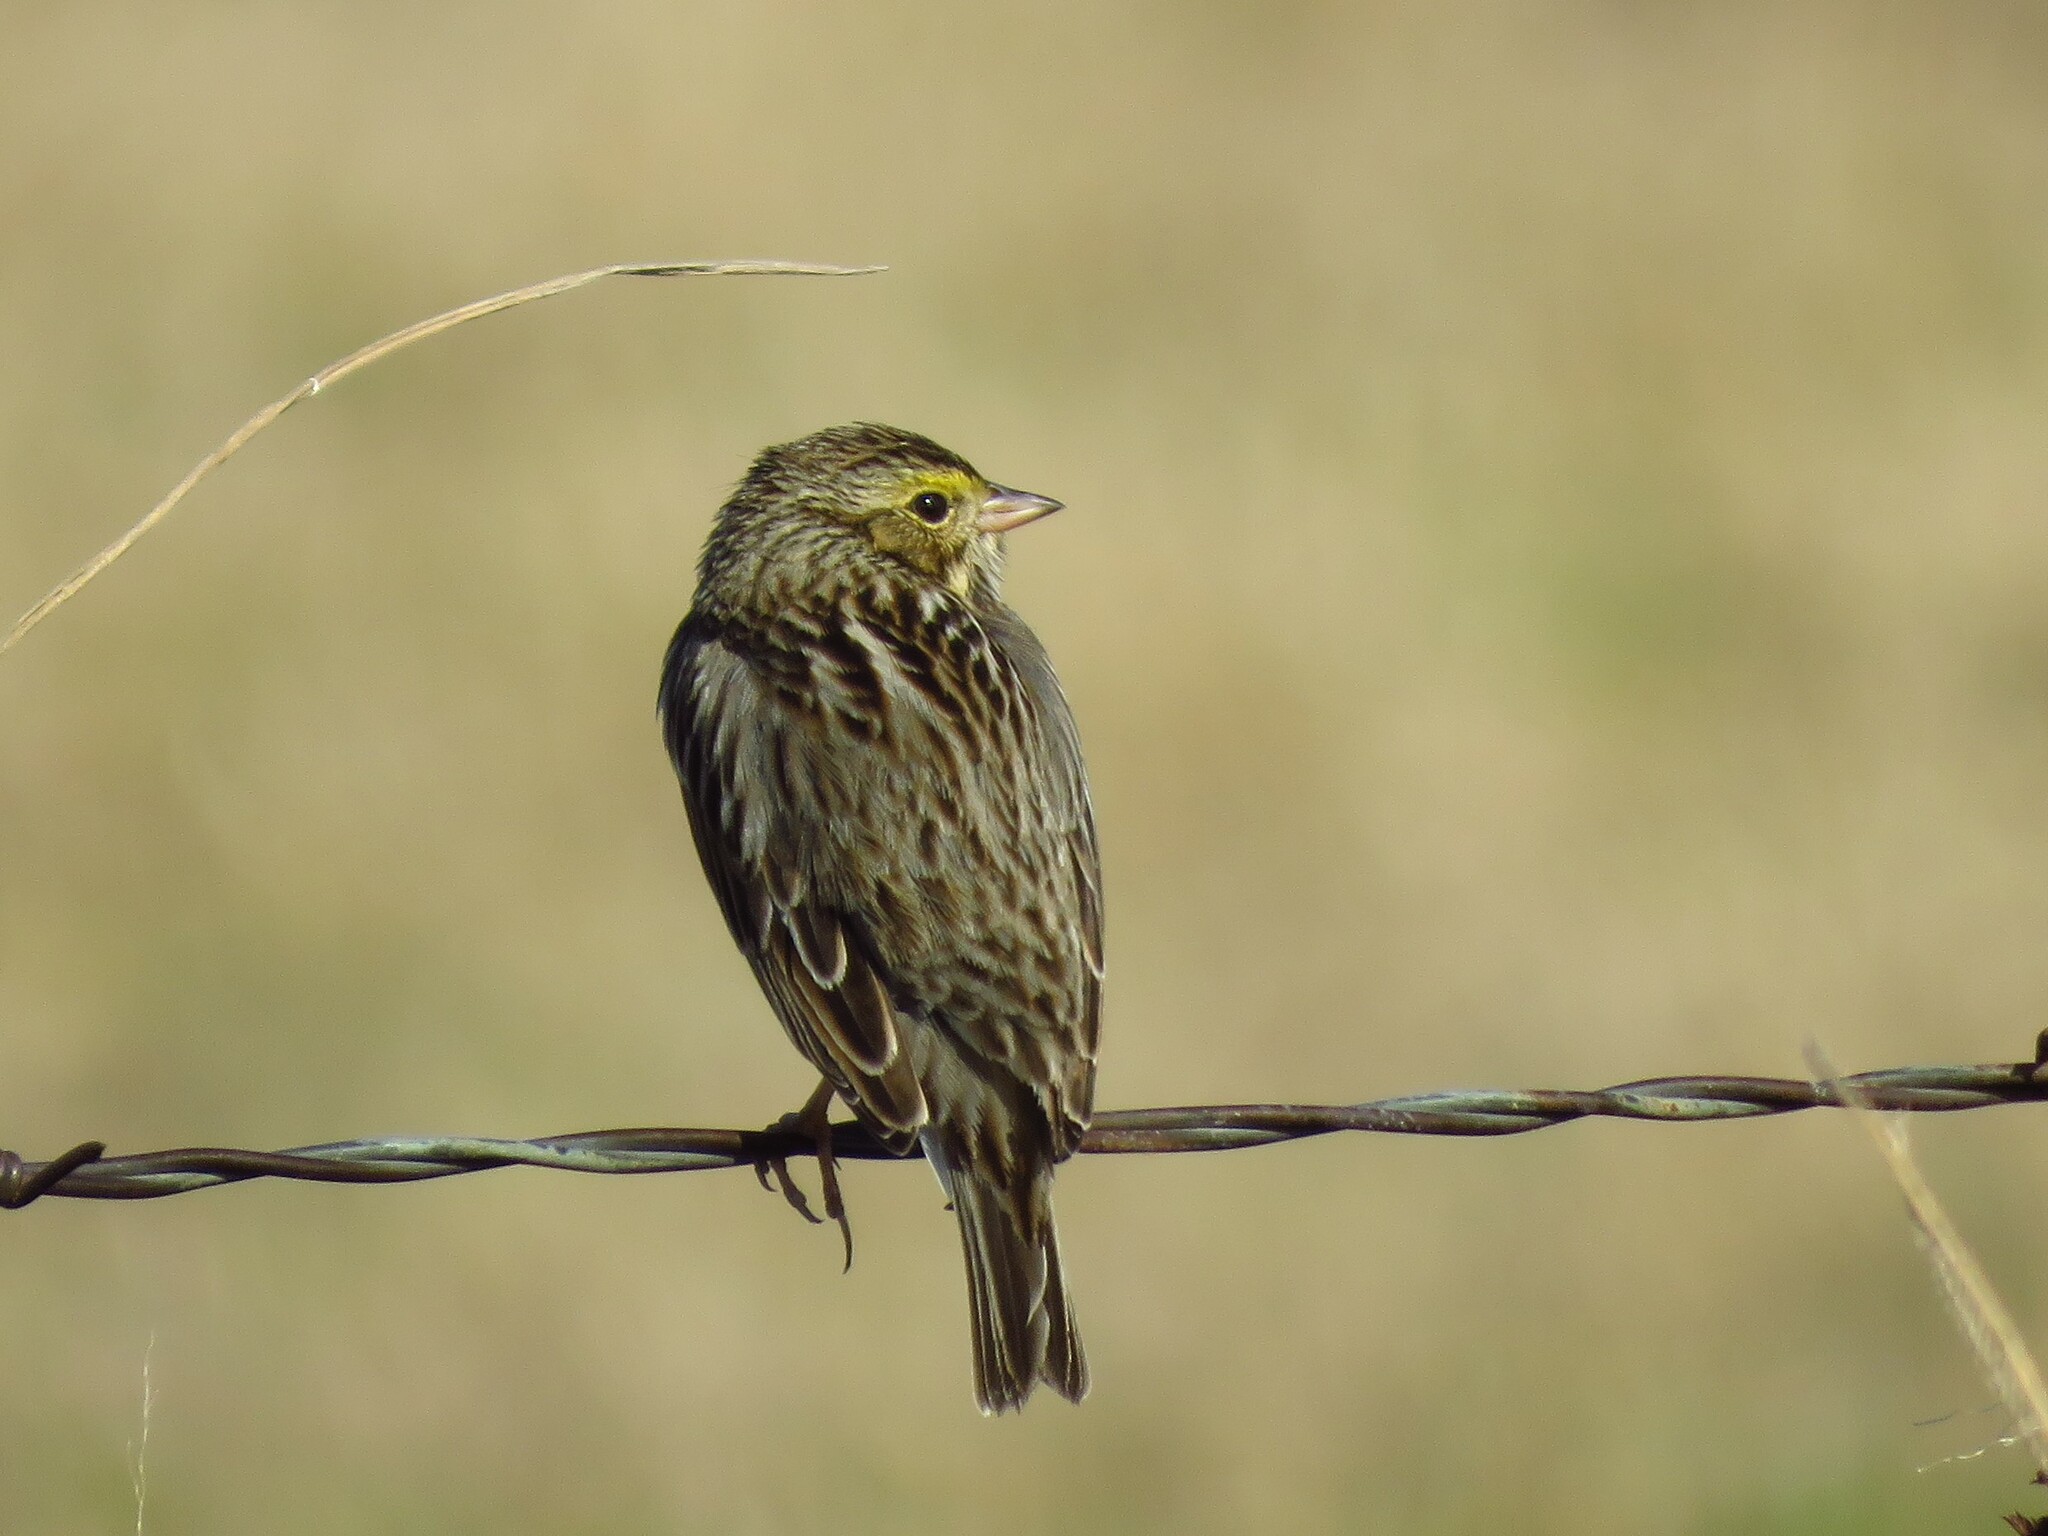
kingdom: Animalia
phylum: Chordata
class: Aves
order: Passeriformes
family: Passerellidae
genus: Passerculus
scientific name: Passerculus sandwichensis
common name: Savannah sparrow
